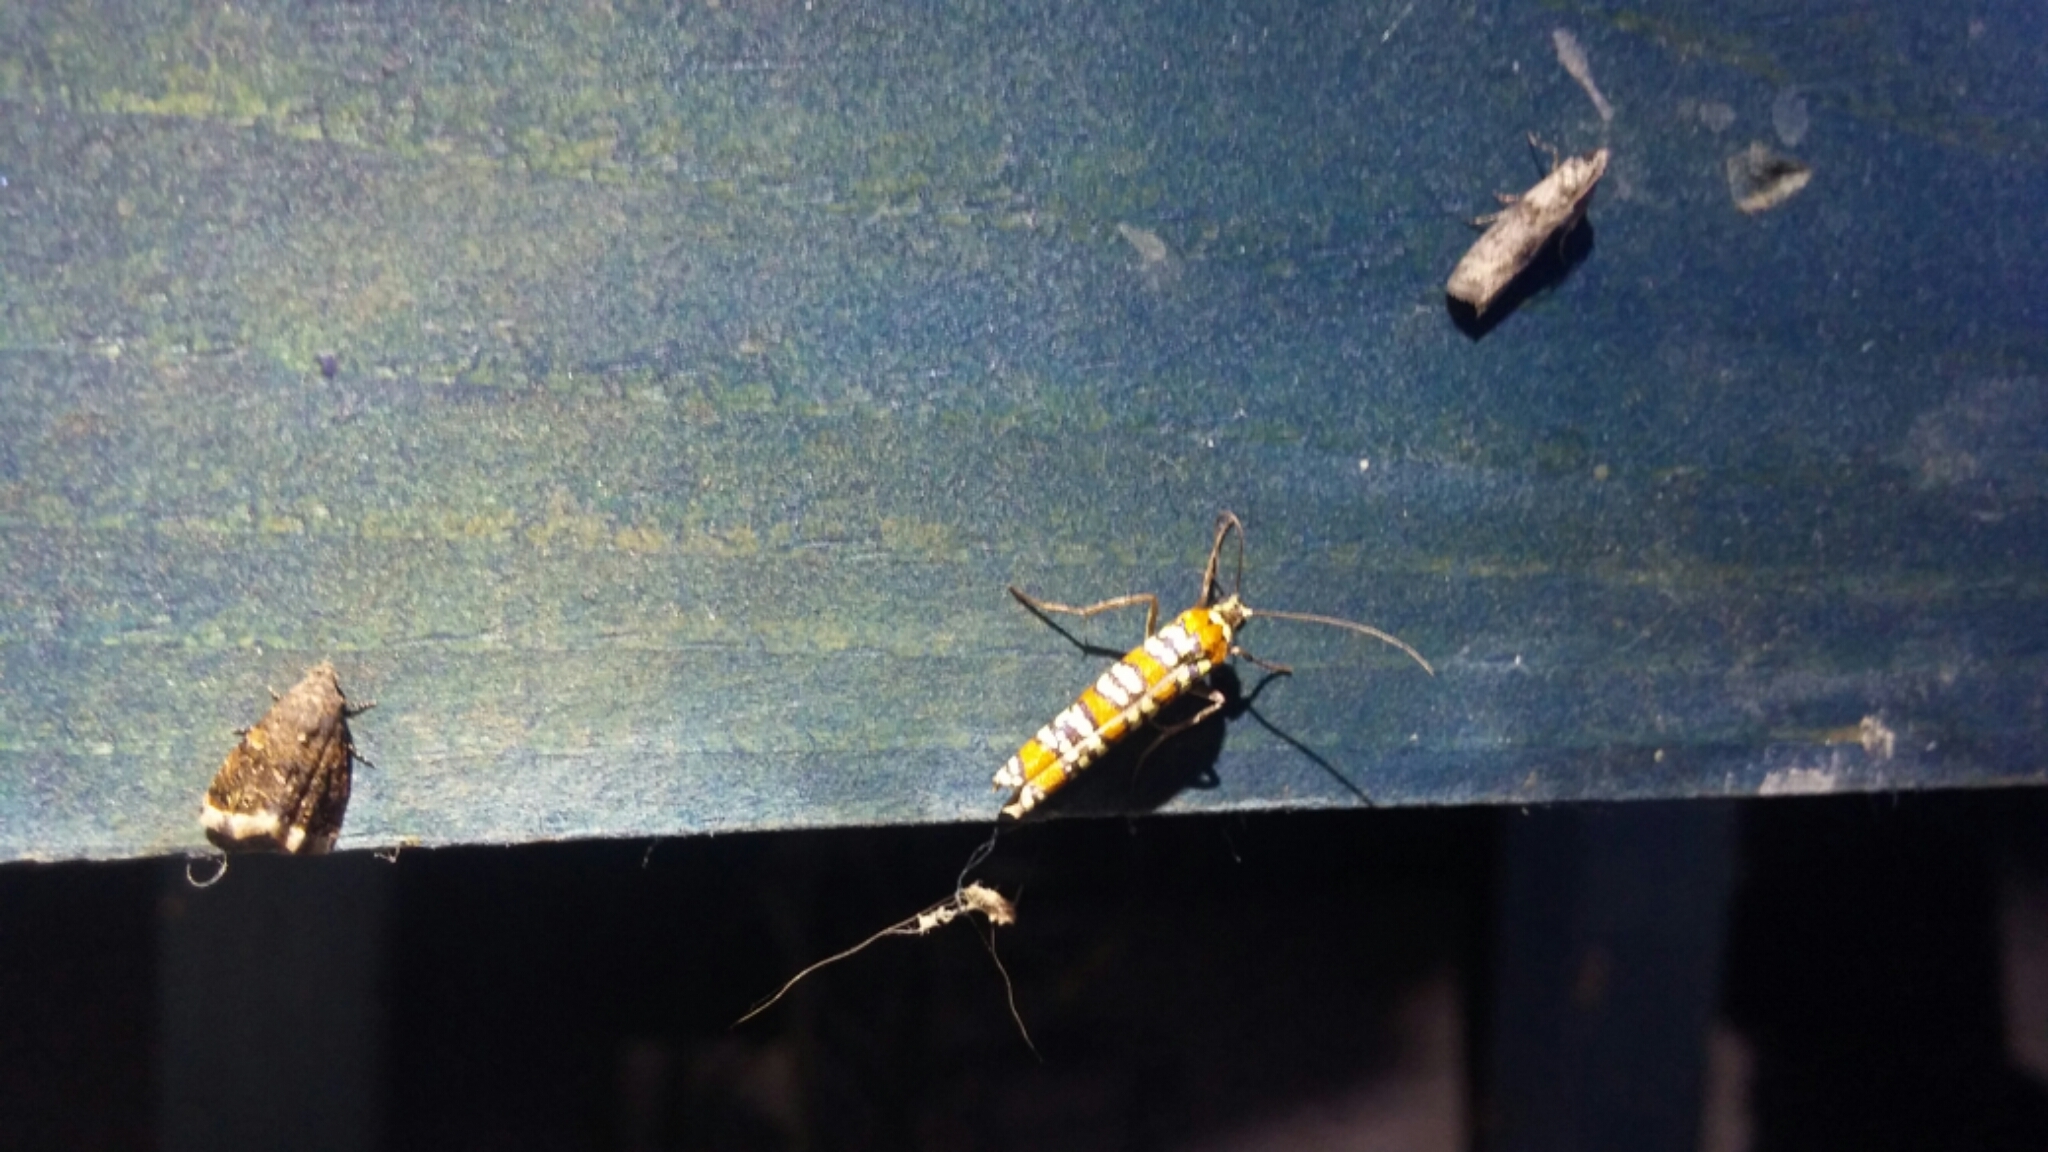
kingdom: Animalia
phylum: Arthropoda
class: Insecta
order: Lepidoptera
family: Attevidae
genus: Atteva
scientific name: Atteva punctella
